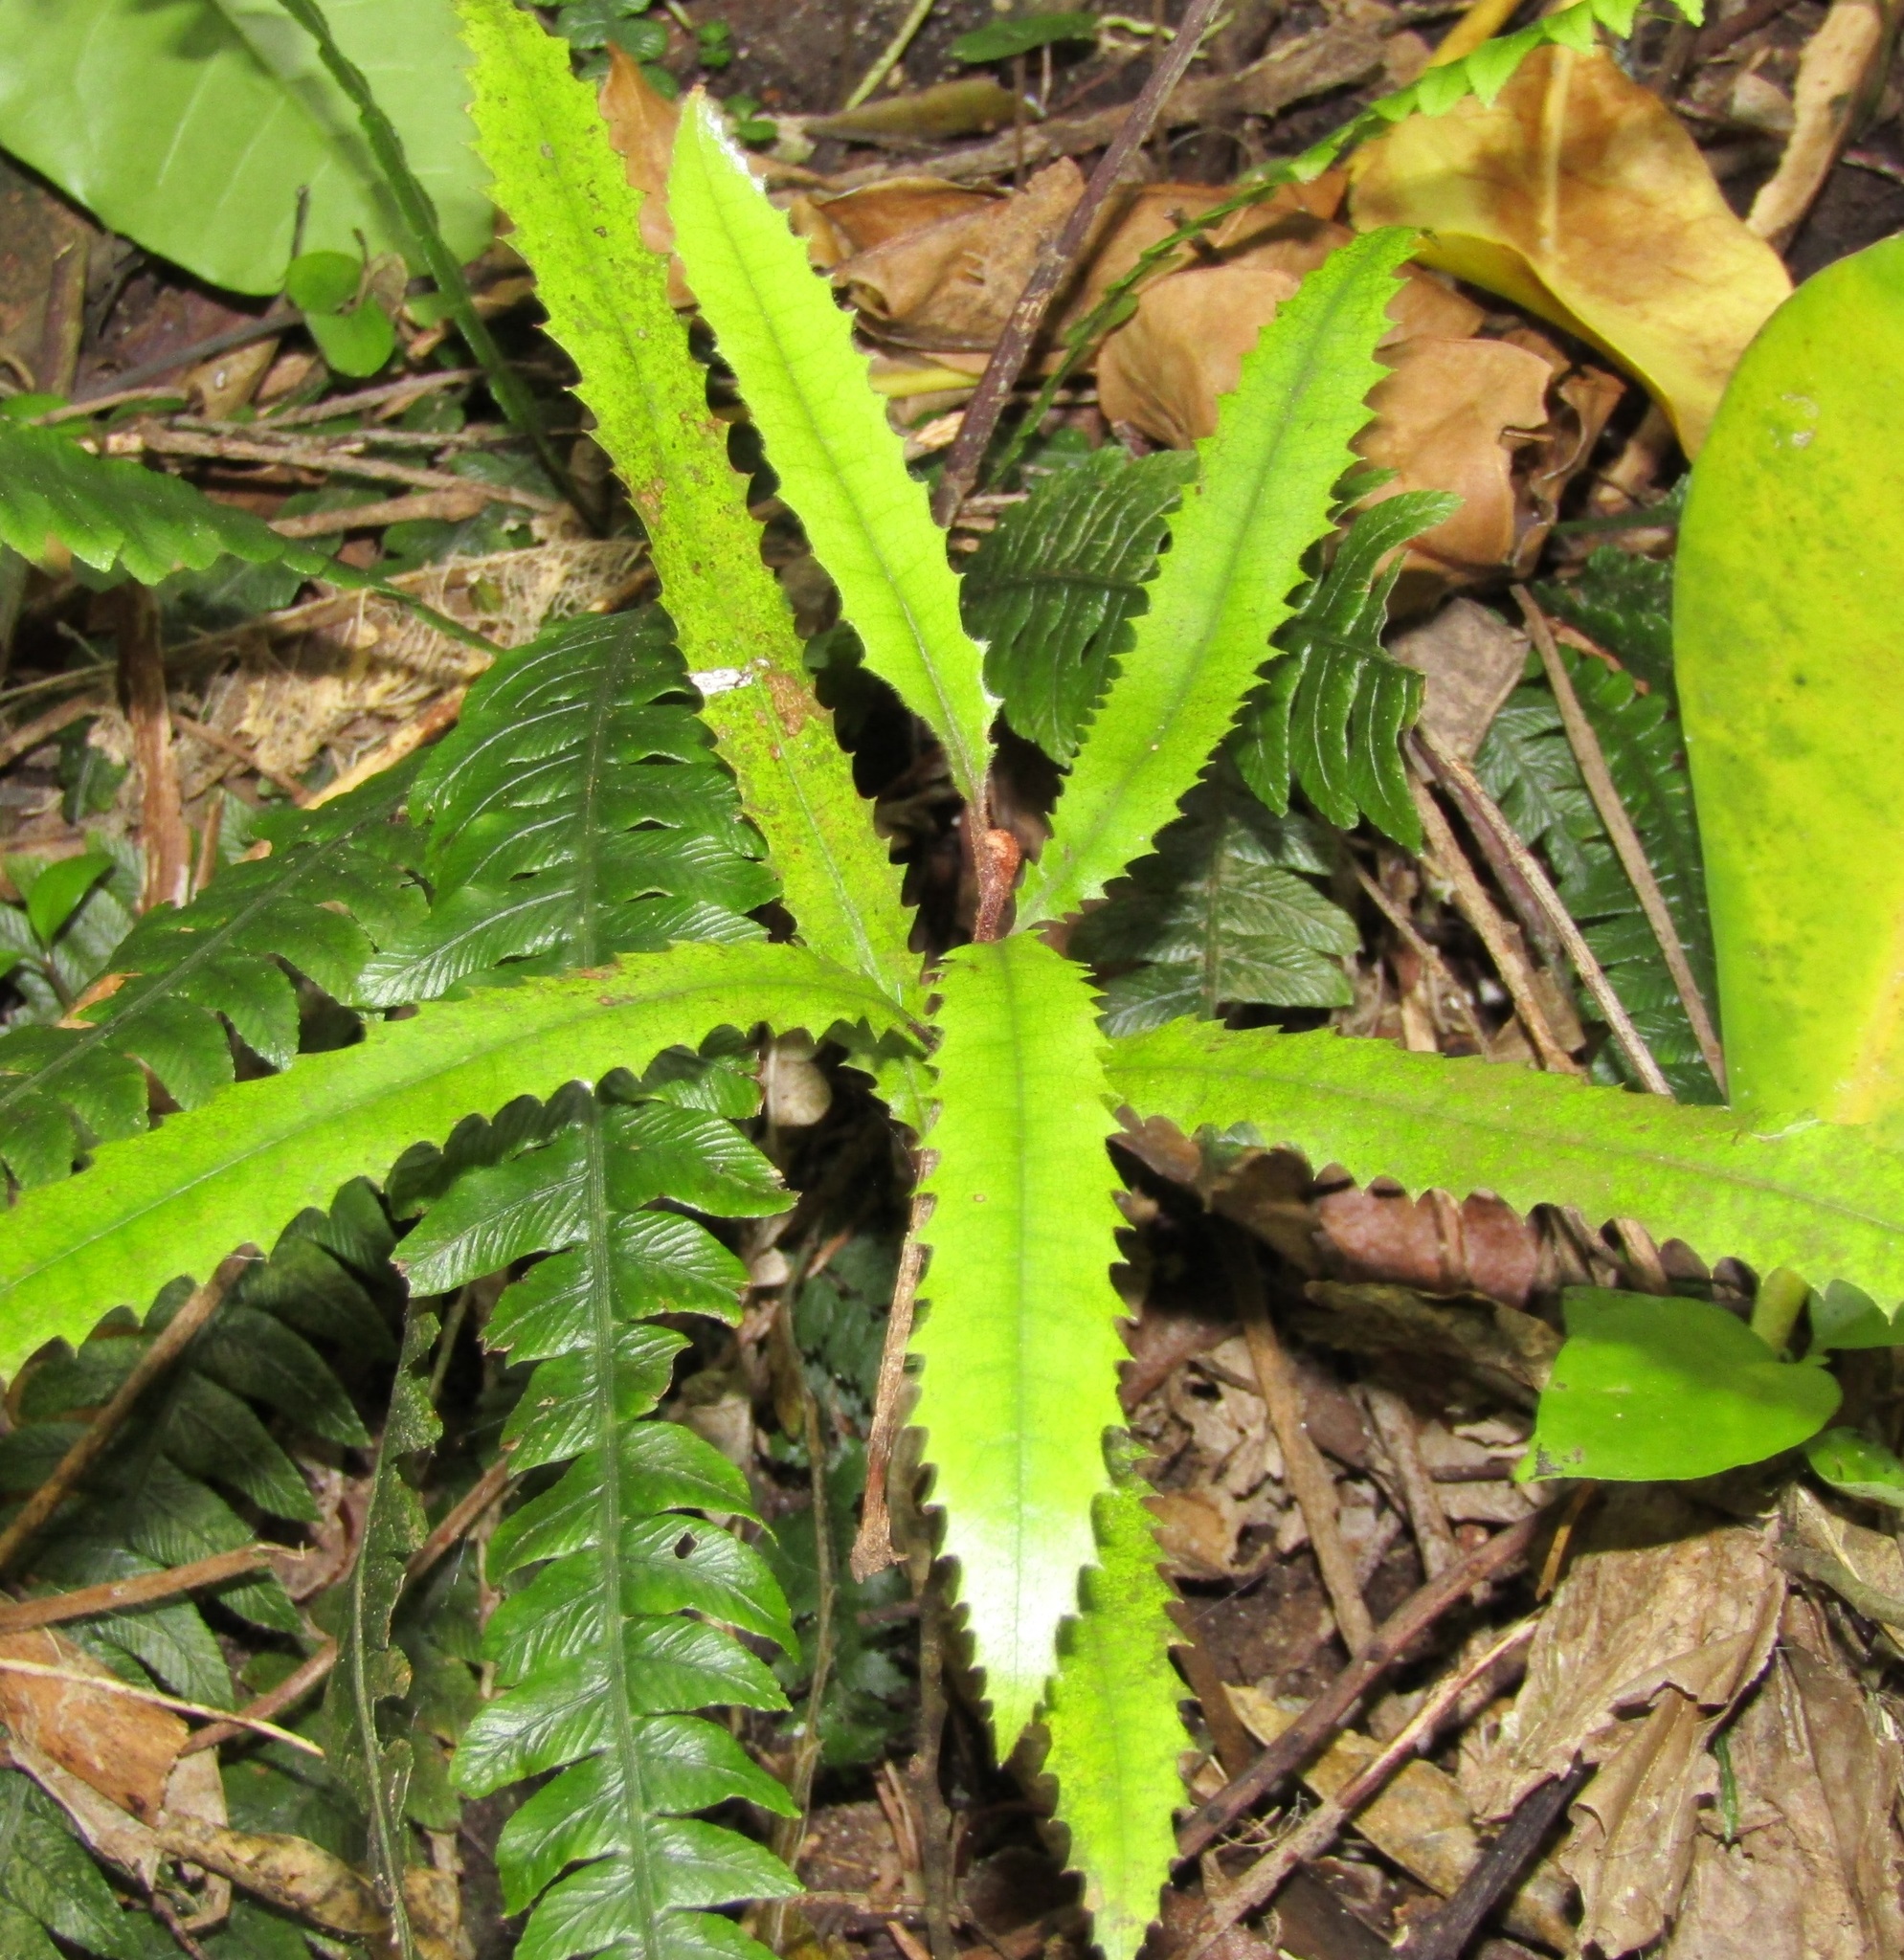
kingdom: Plantae
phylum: Tracheophyta
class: Magnoliopsida
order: Proteales
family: Proteaceae
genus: Knightia
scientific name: Knightia excelsa
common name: New zealand-honeysuckle
